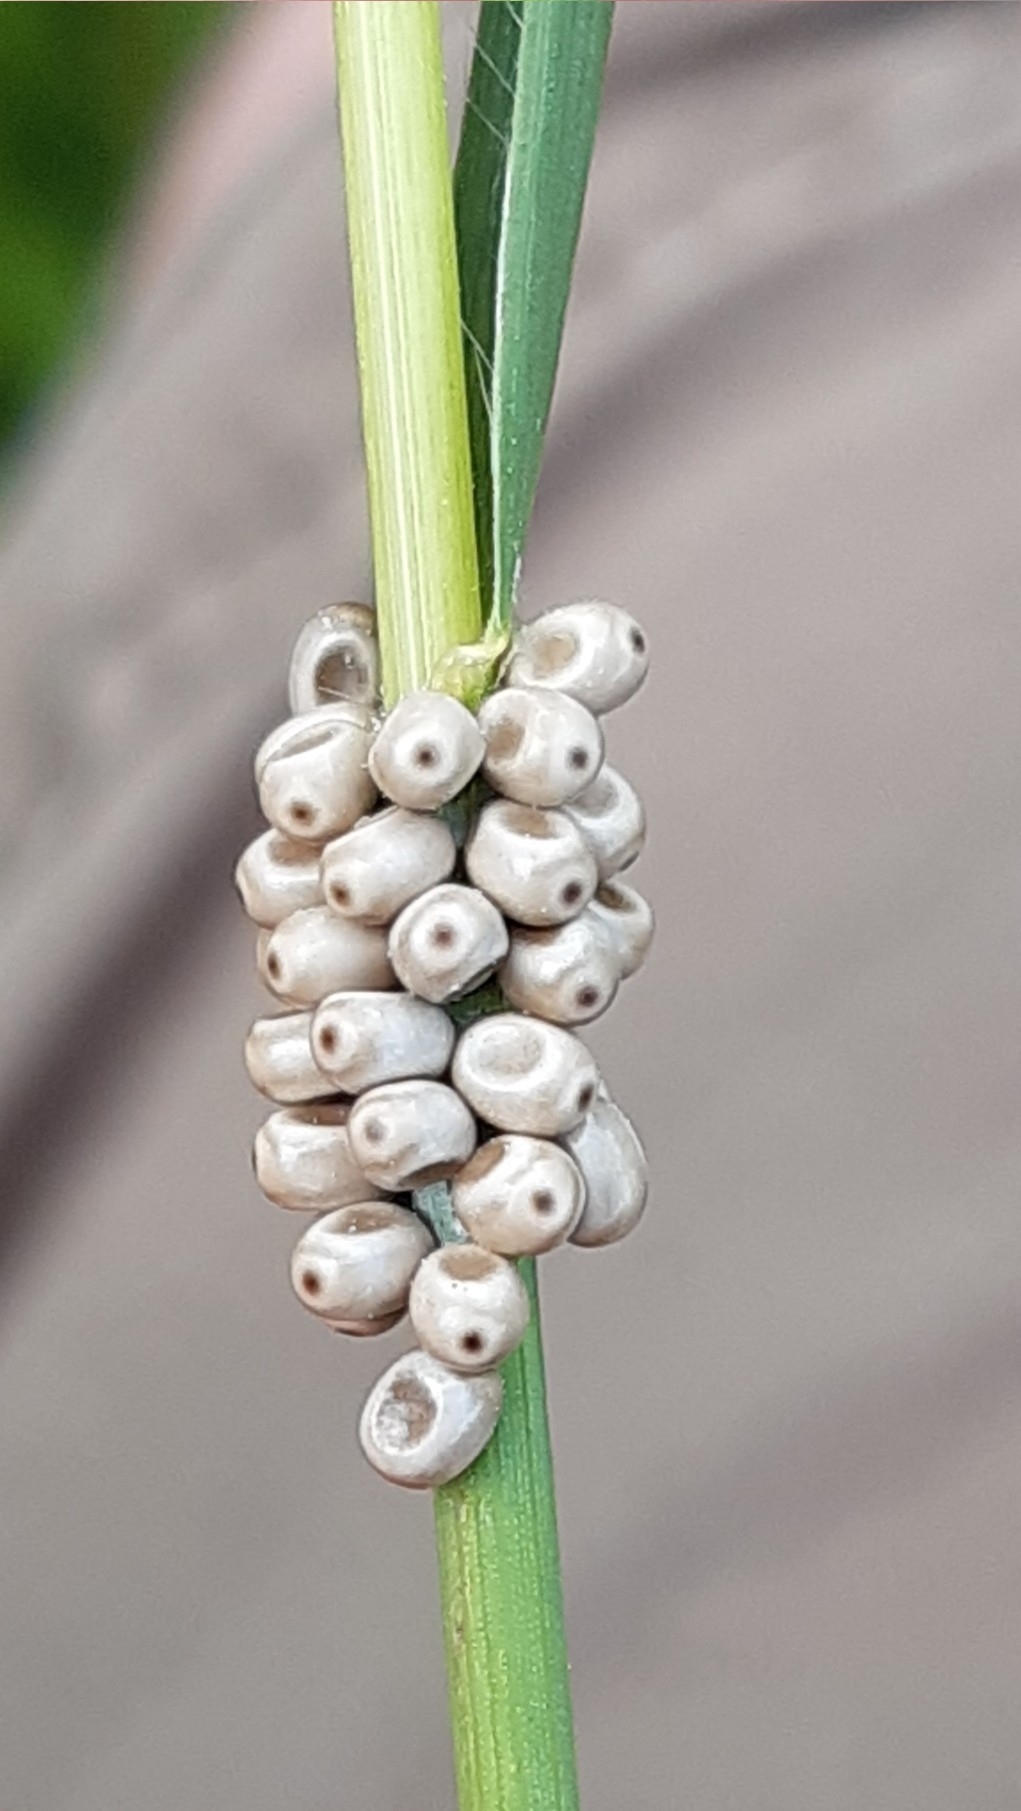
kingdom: Animalia
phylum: Arthropoda
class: Insecta
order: Lepidoptera
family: Lasiocampidae
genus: Macrothylacia
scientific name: Macrothylacia rubi
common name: Fox moth
